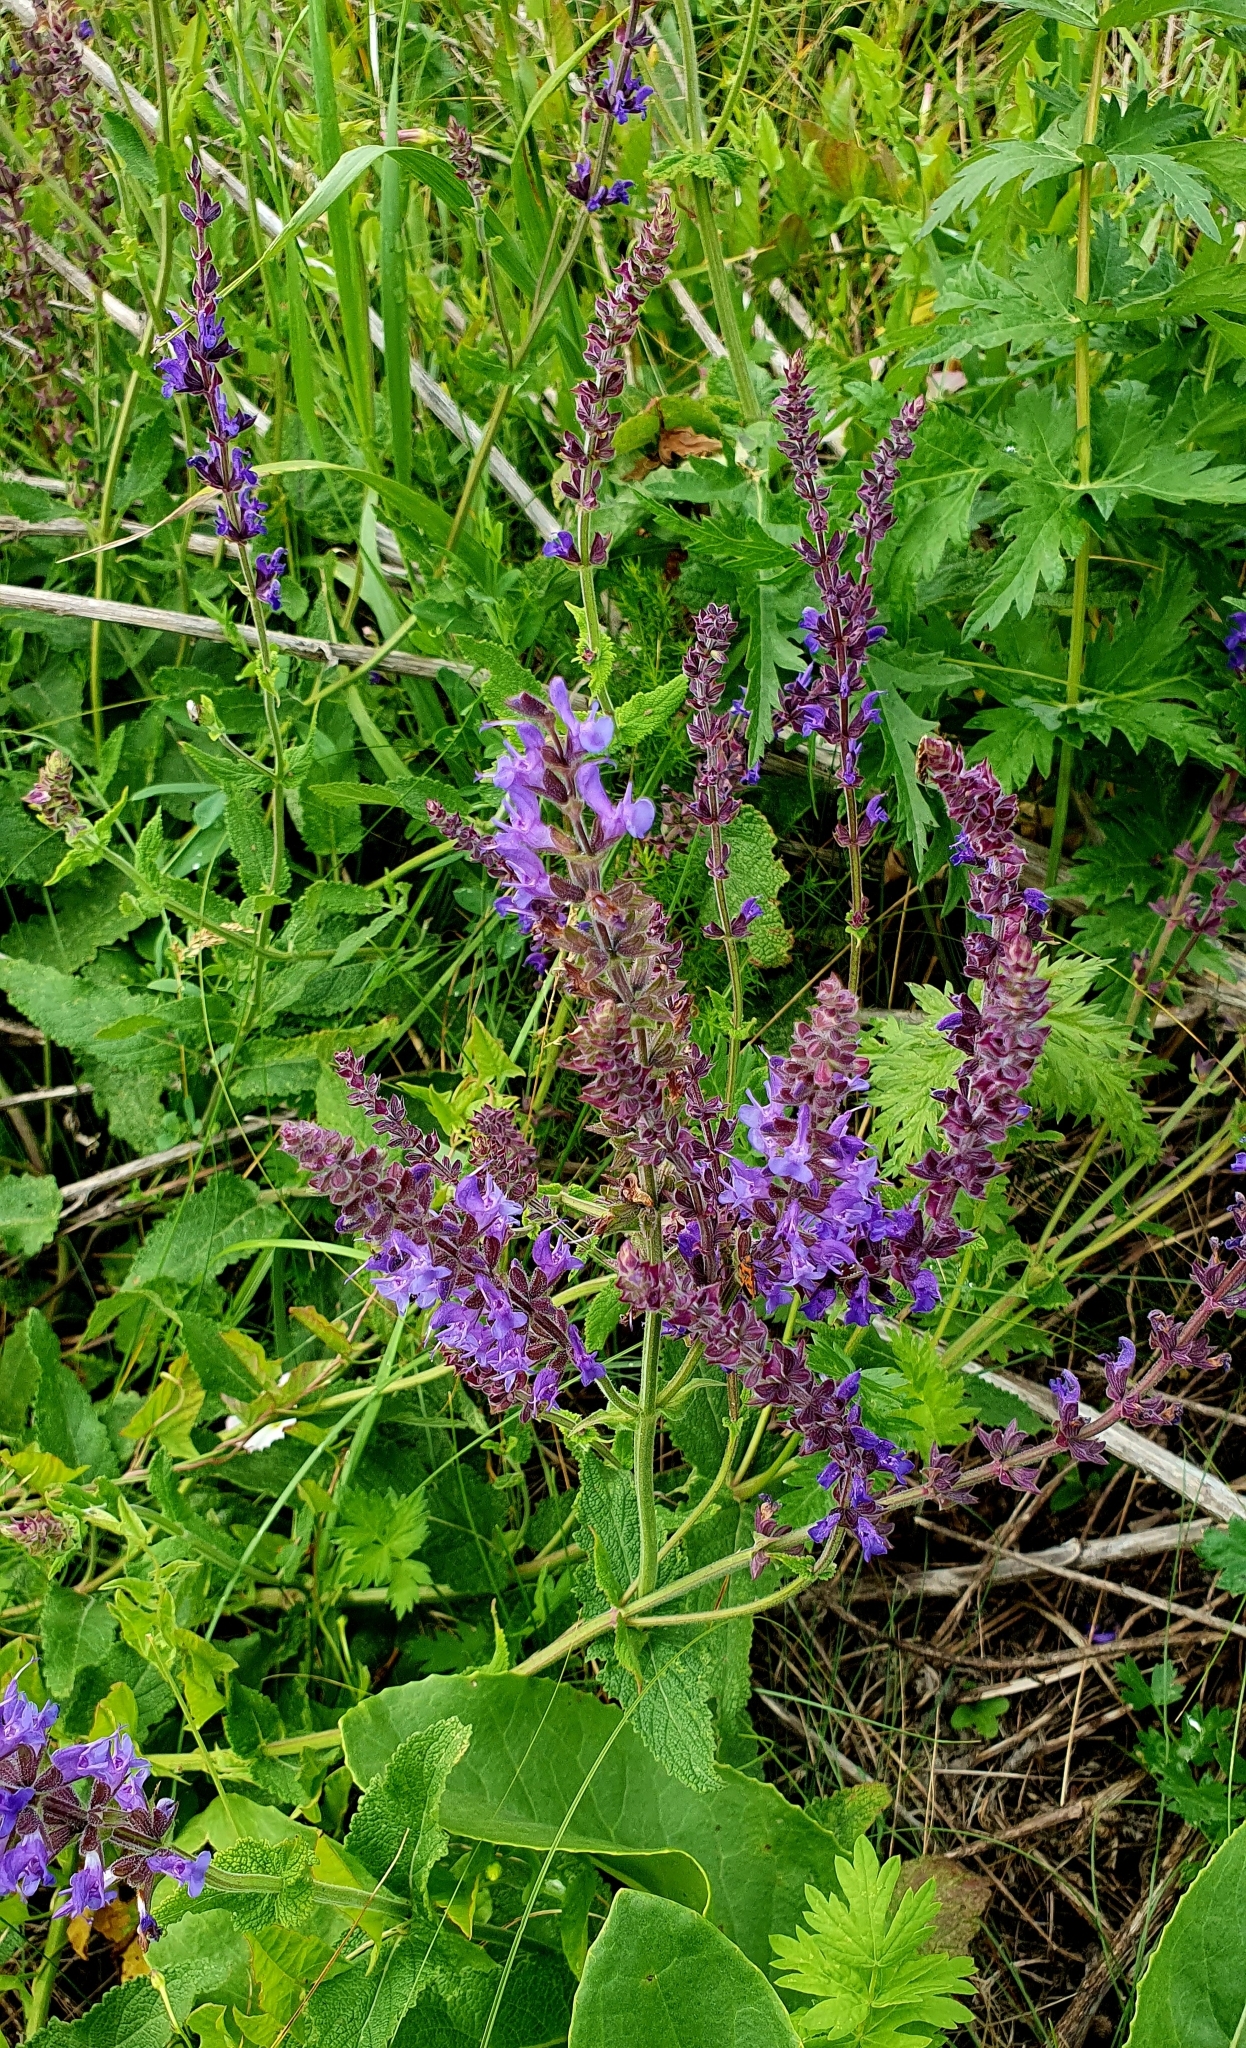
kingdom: Plantae
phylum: Tracheophyta
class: Magnoliopsida
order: Lamiales
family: Lamiaceae
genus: Salvia
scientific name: Salvia nemorosa
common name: Balkan clary
